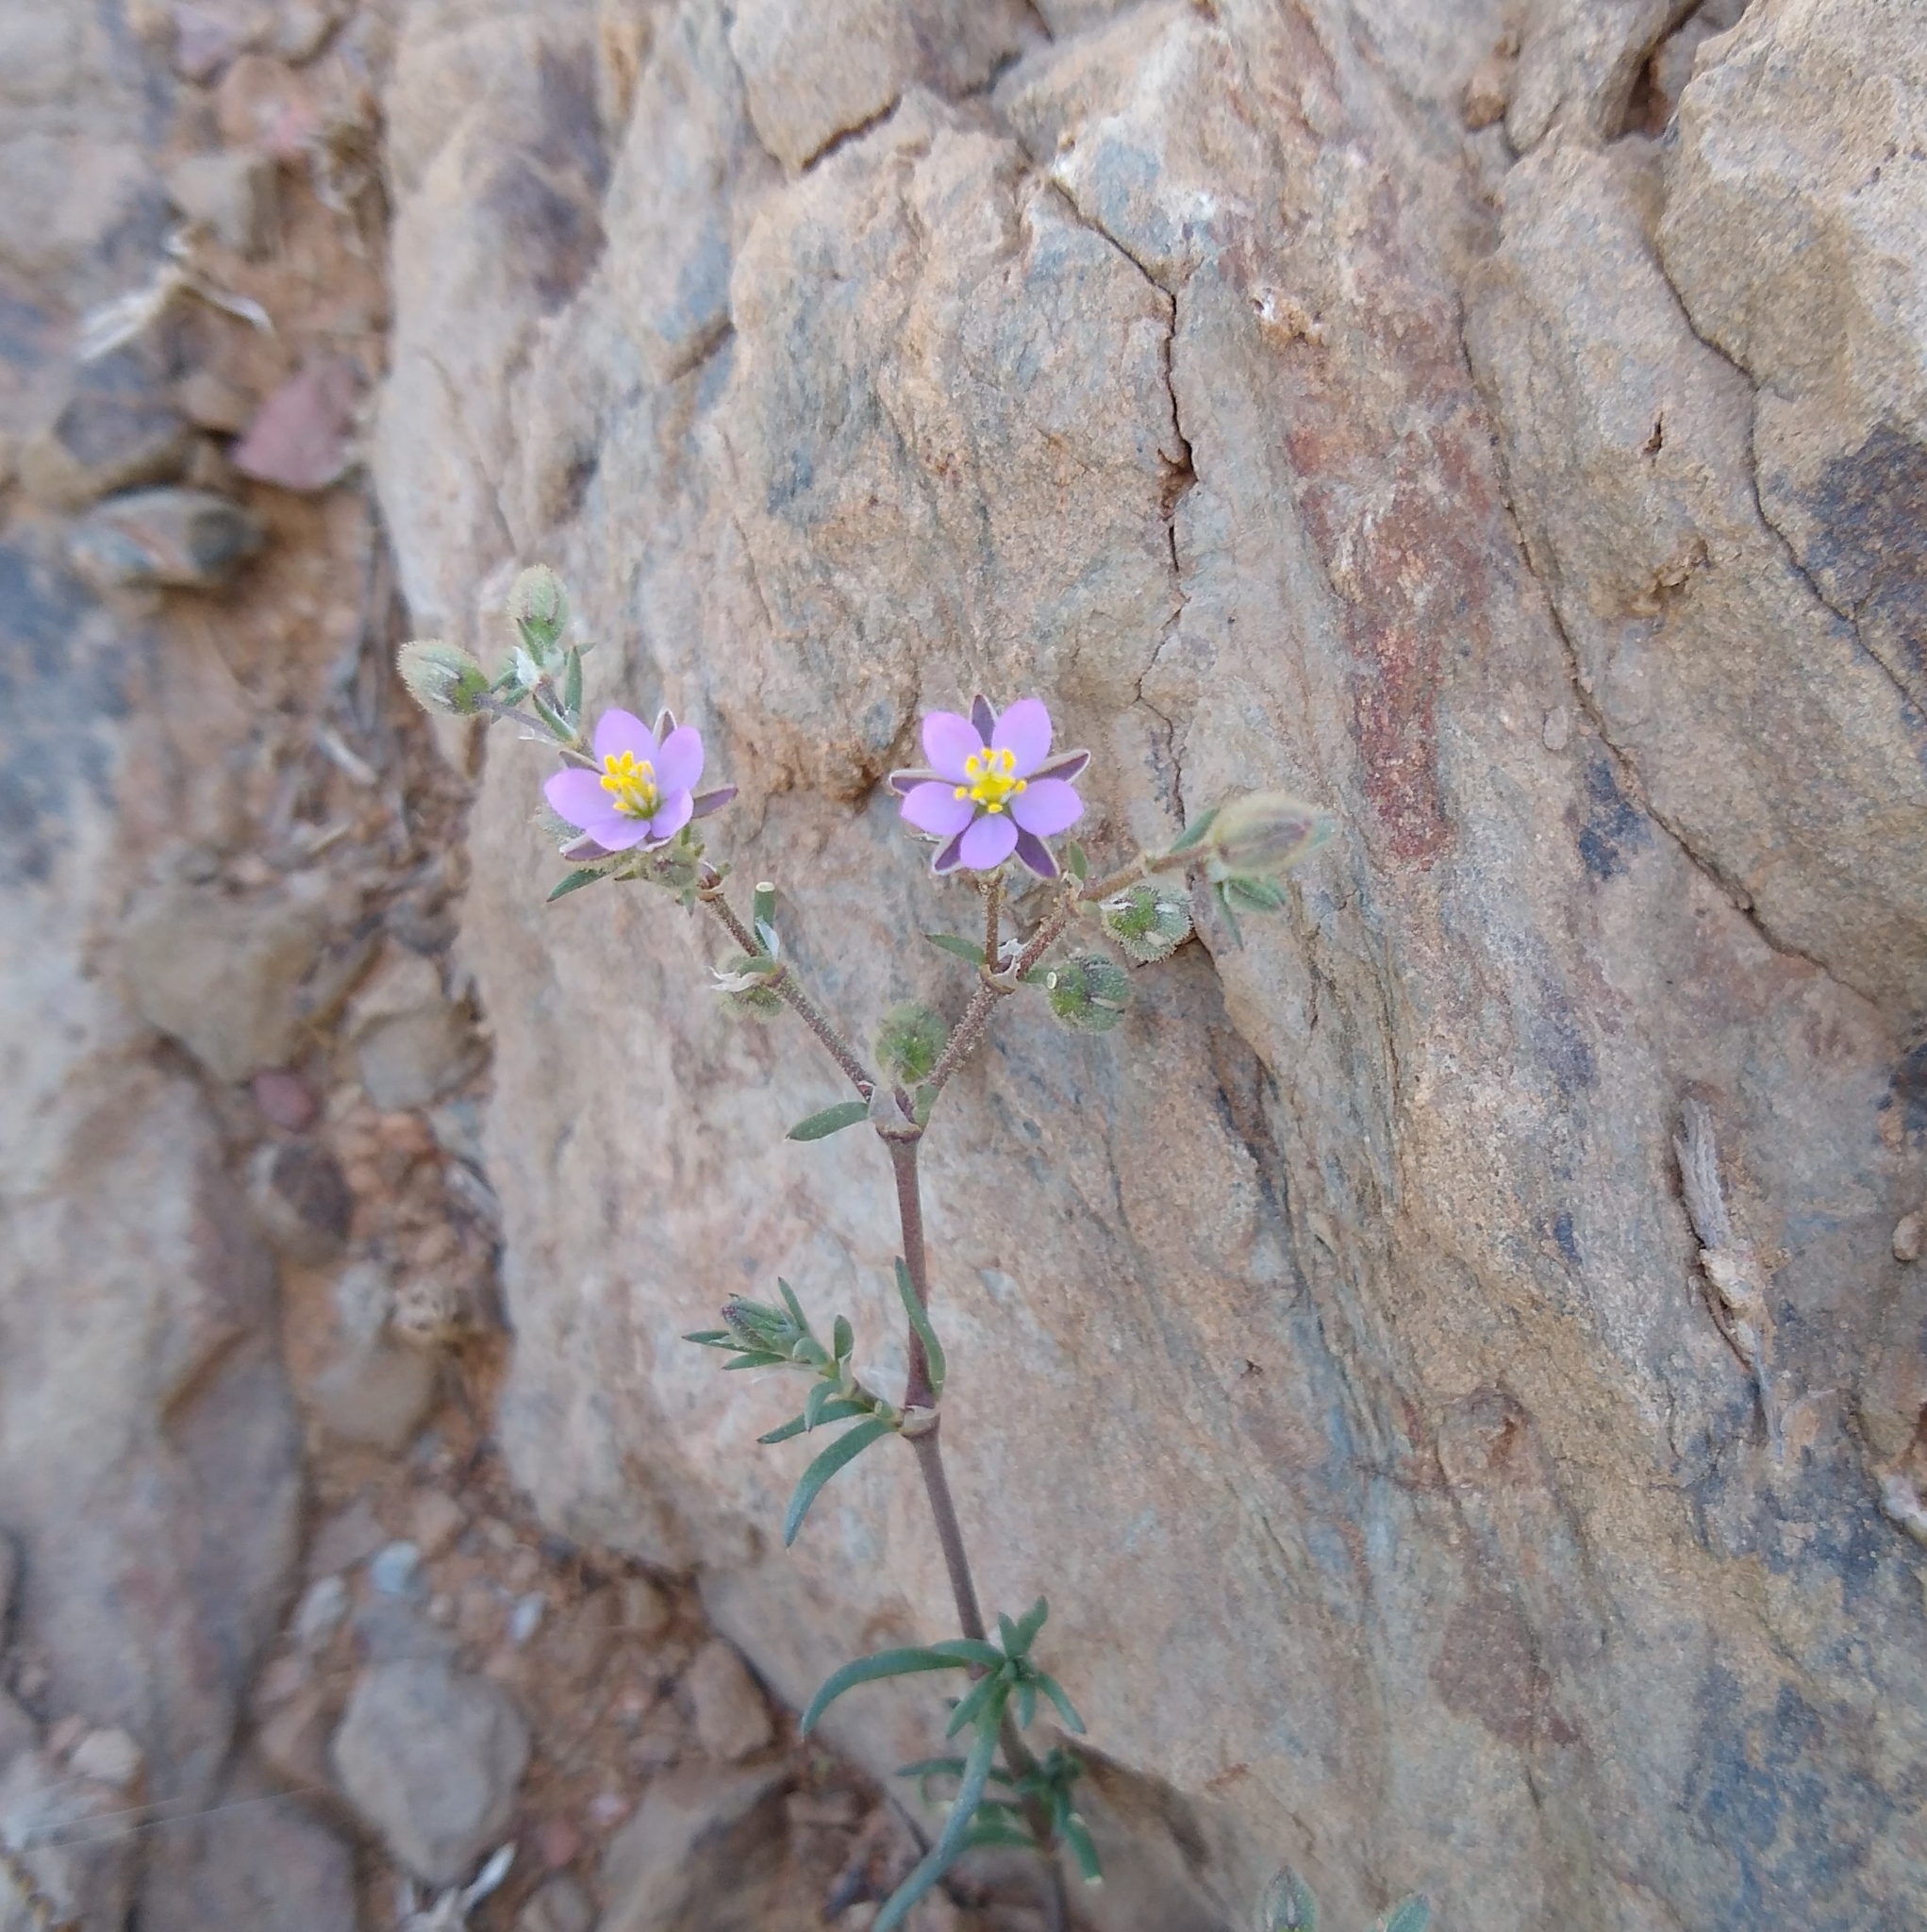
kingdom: Plantae
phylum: Tracheophyta
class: Magnoliopsida
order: Caryophyllales
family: Caryophyllaceae
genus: Spergularia
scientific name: Spergularia rubra
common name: Red sand-spurrey
